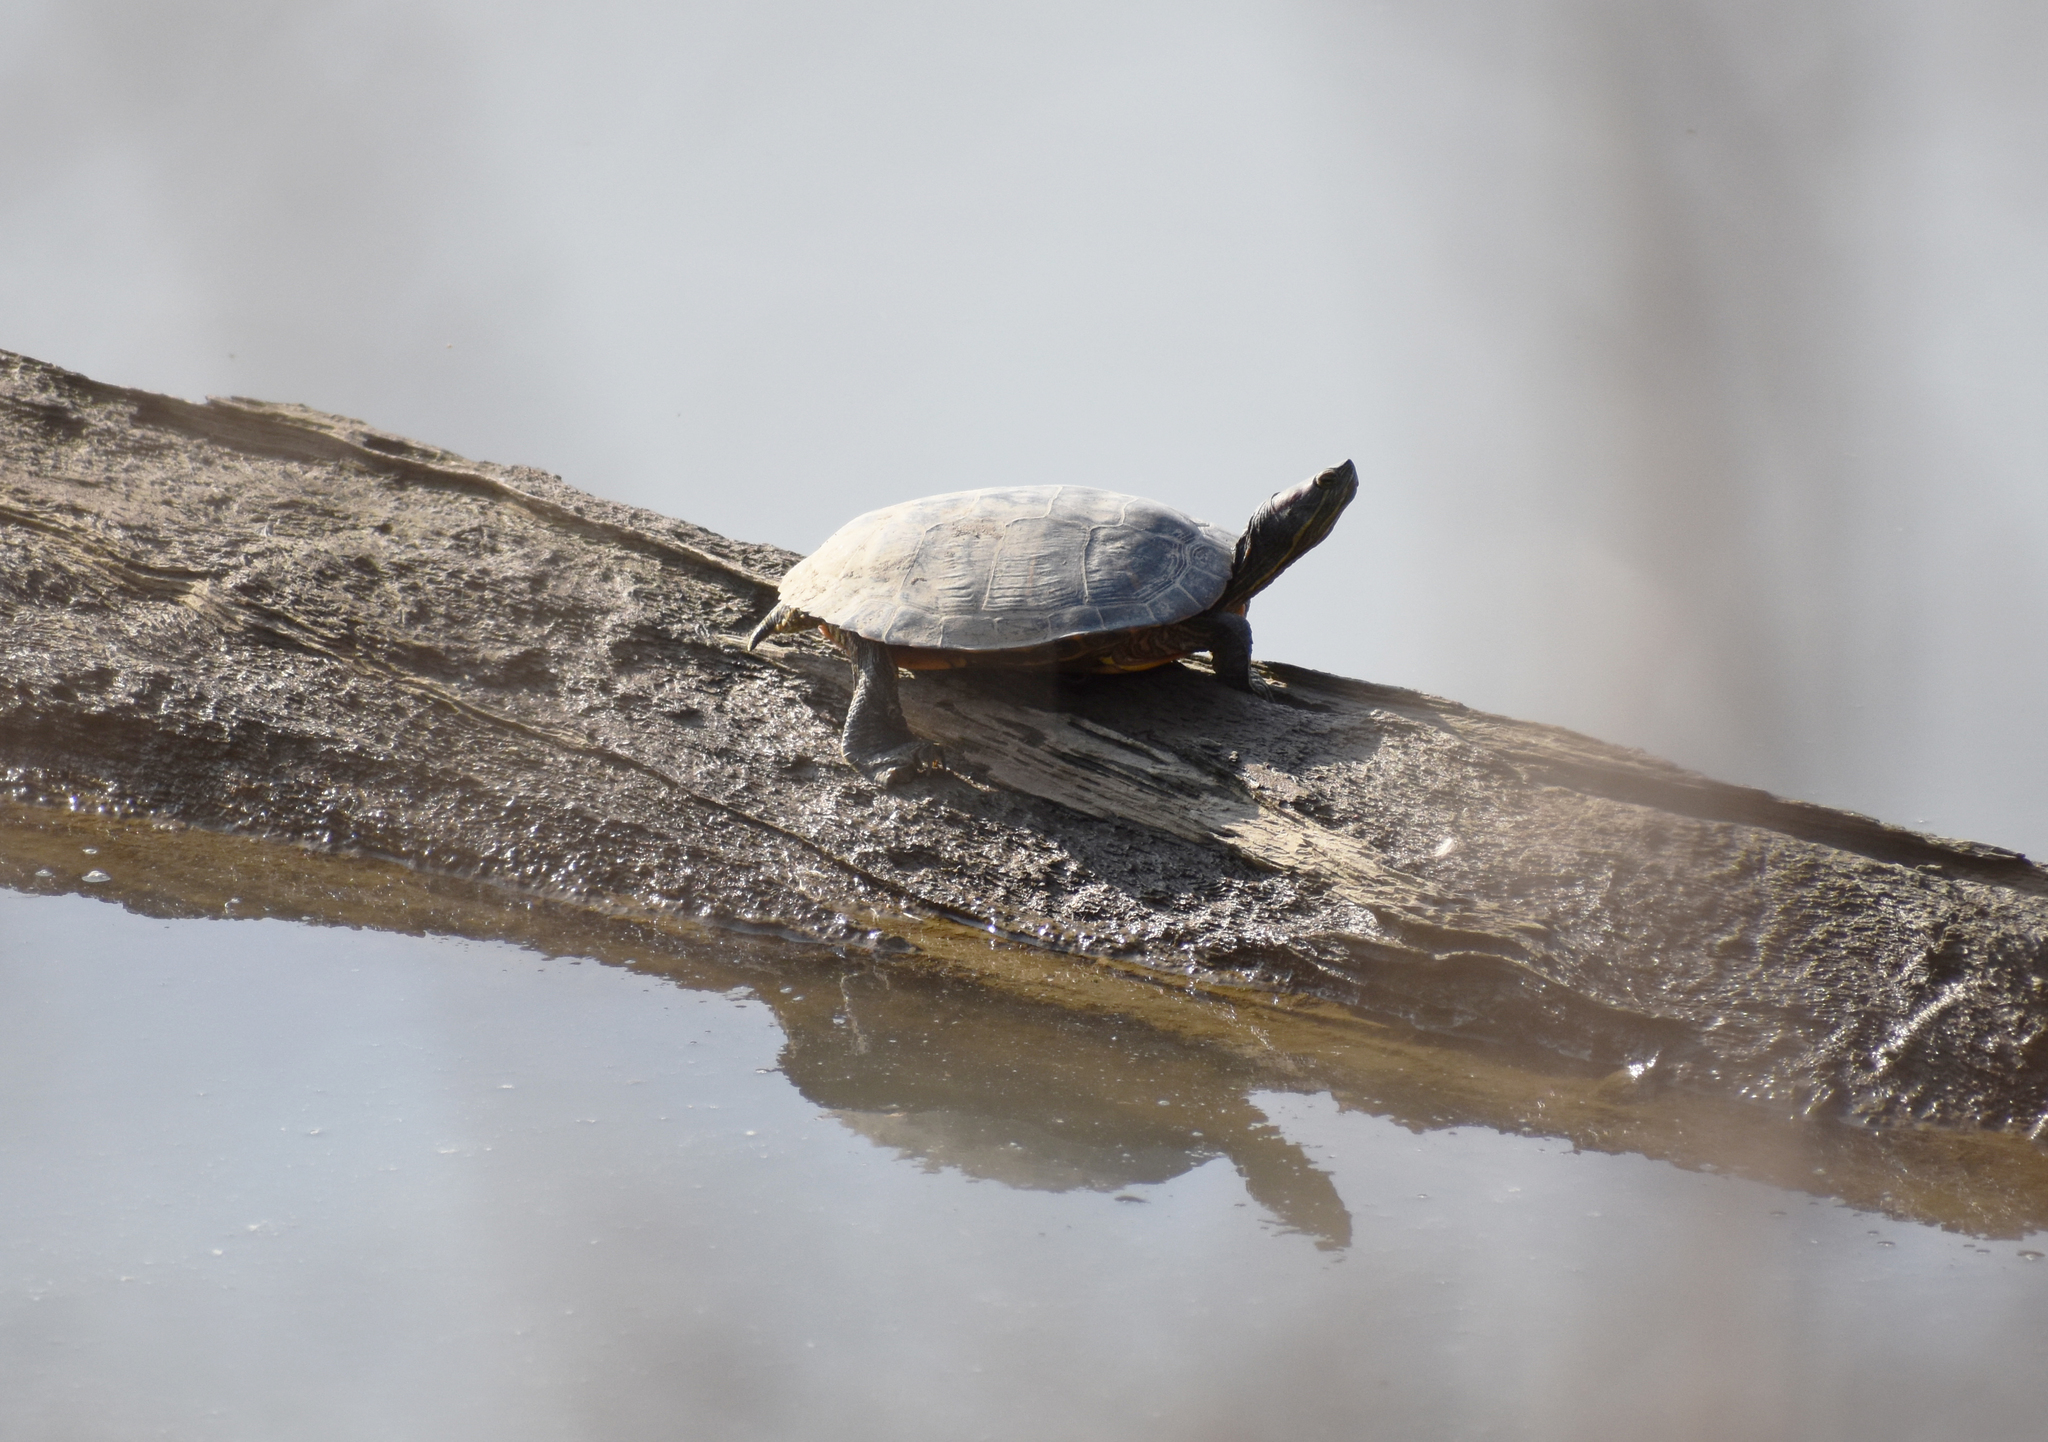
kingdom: Animalia
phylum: Chordata
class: Testudines
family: Emydidae
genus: Trachemys
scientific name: Trachemys scripta
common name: Slider
